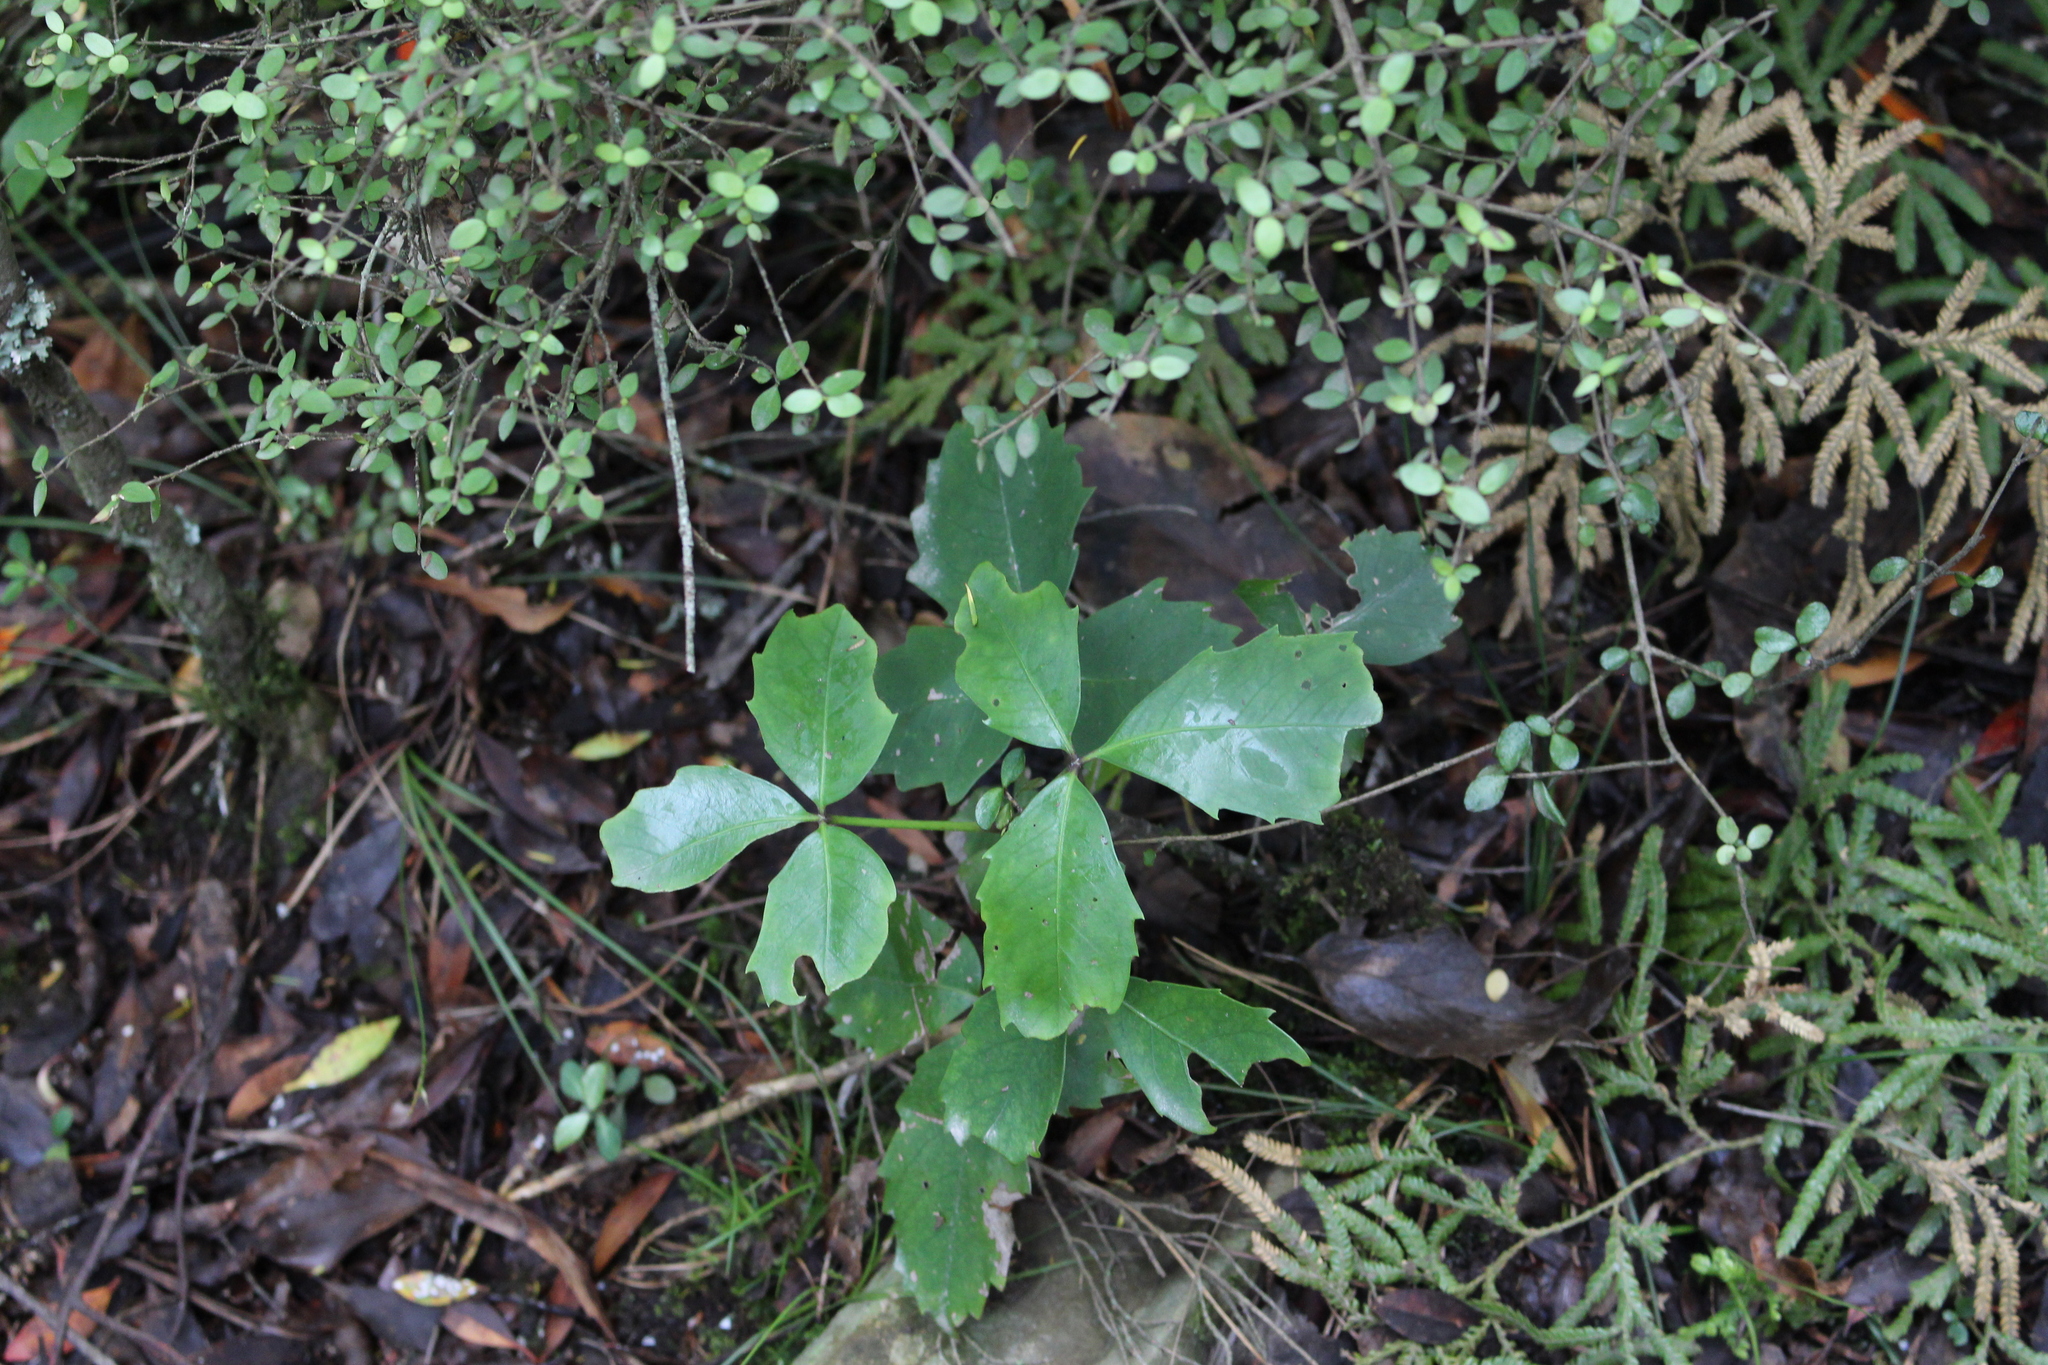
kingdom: Plantae
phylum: Tracheophyta
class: Magnoliopsida
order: Apiales
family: Araliaceae
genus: Neopanax
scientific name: Neopanax colensoi
